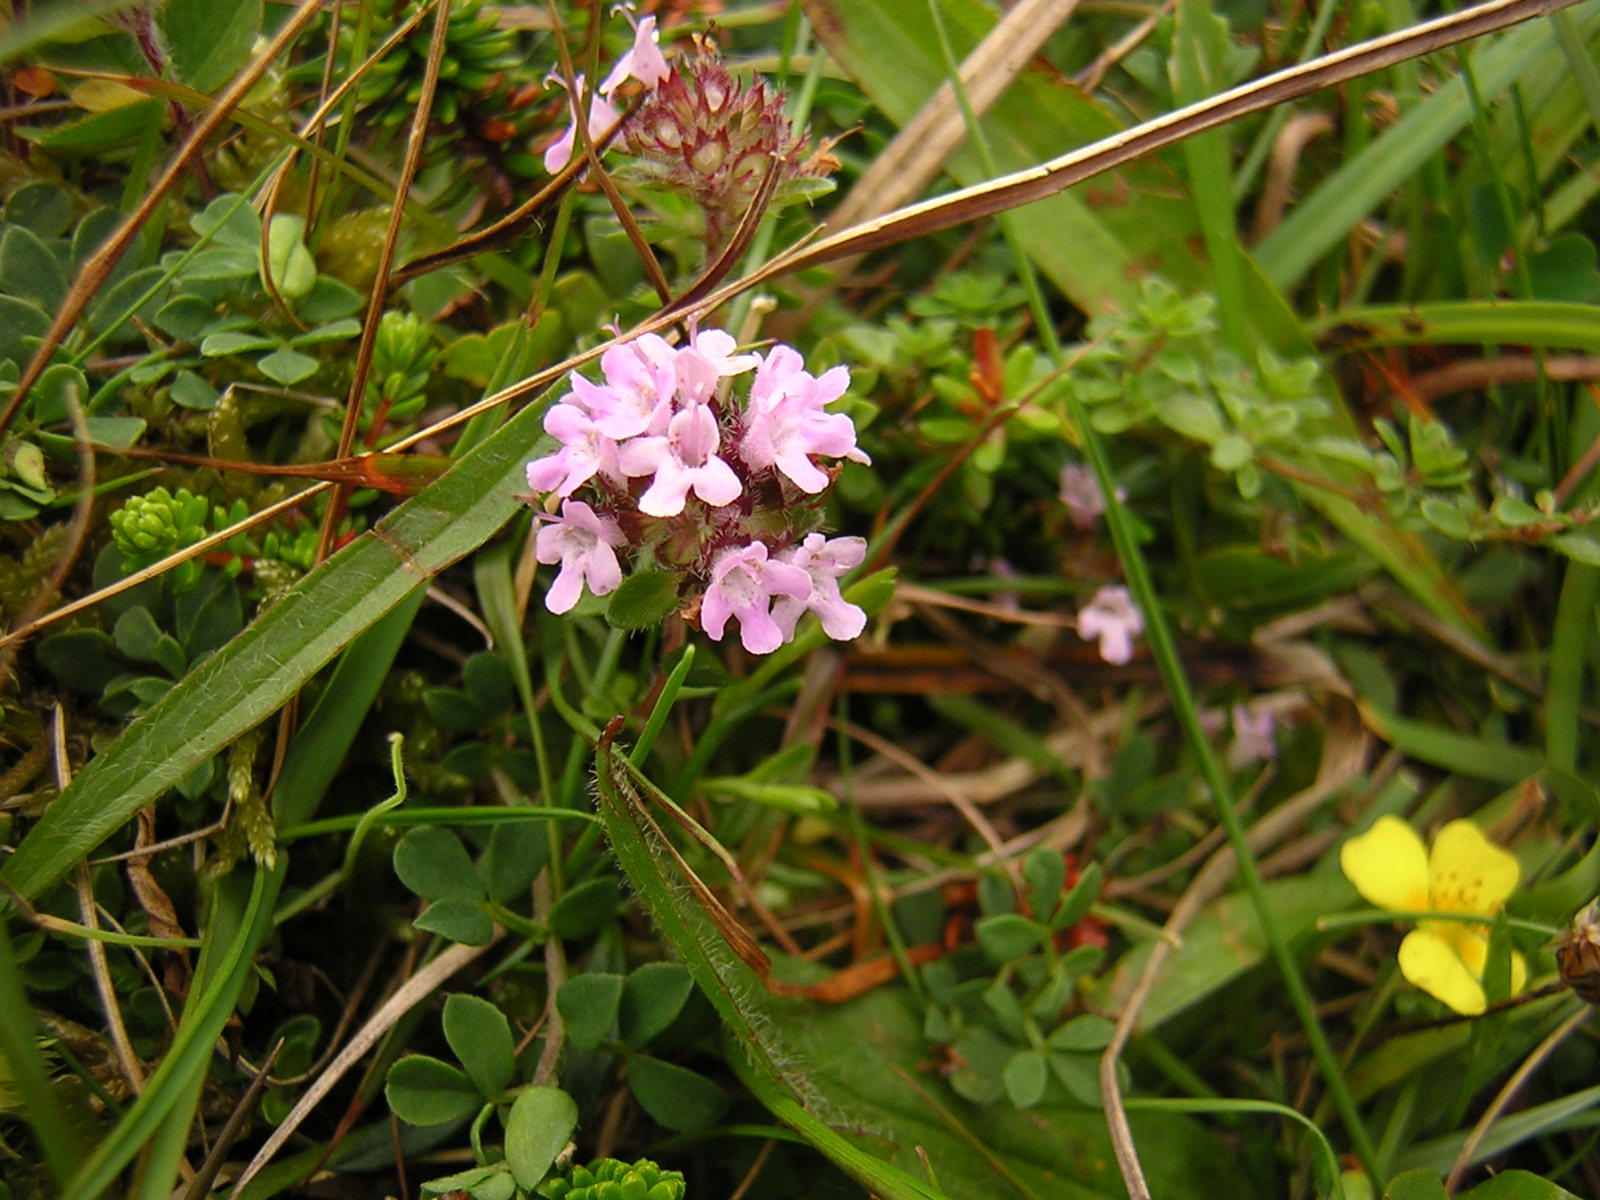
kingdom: Plantae
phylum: Tracheophyta
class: Magnoliopsida
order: Lamiales
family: Lamiaceae
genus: Thymus
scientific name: Thymus praecox
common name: Wild thyme
